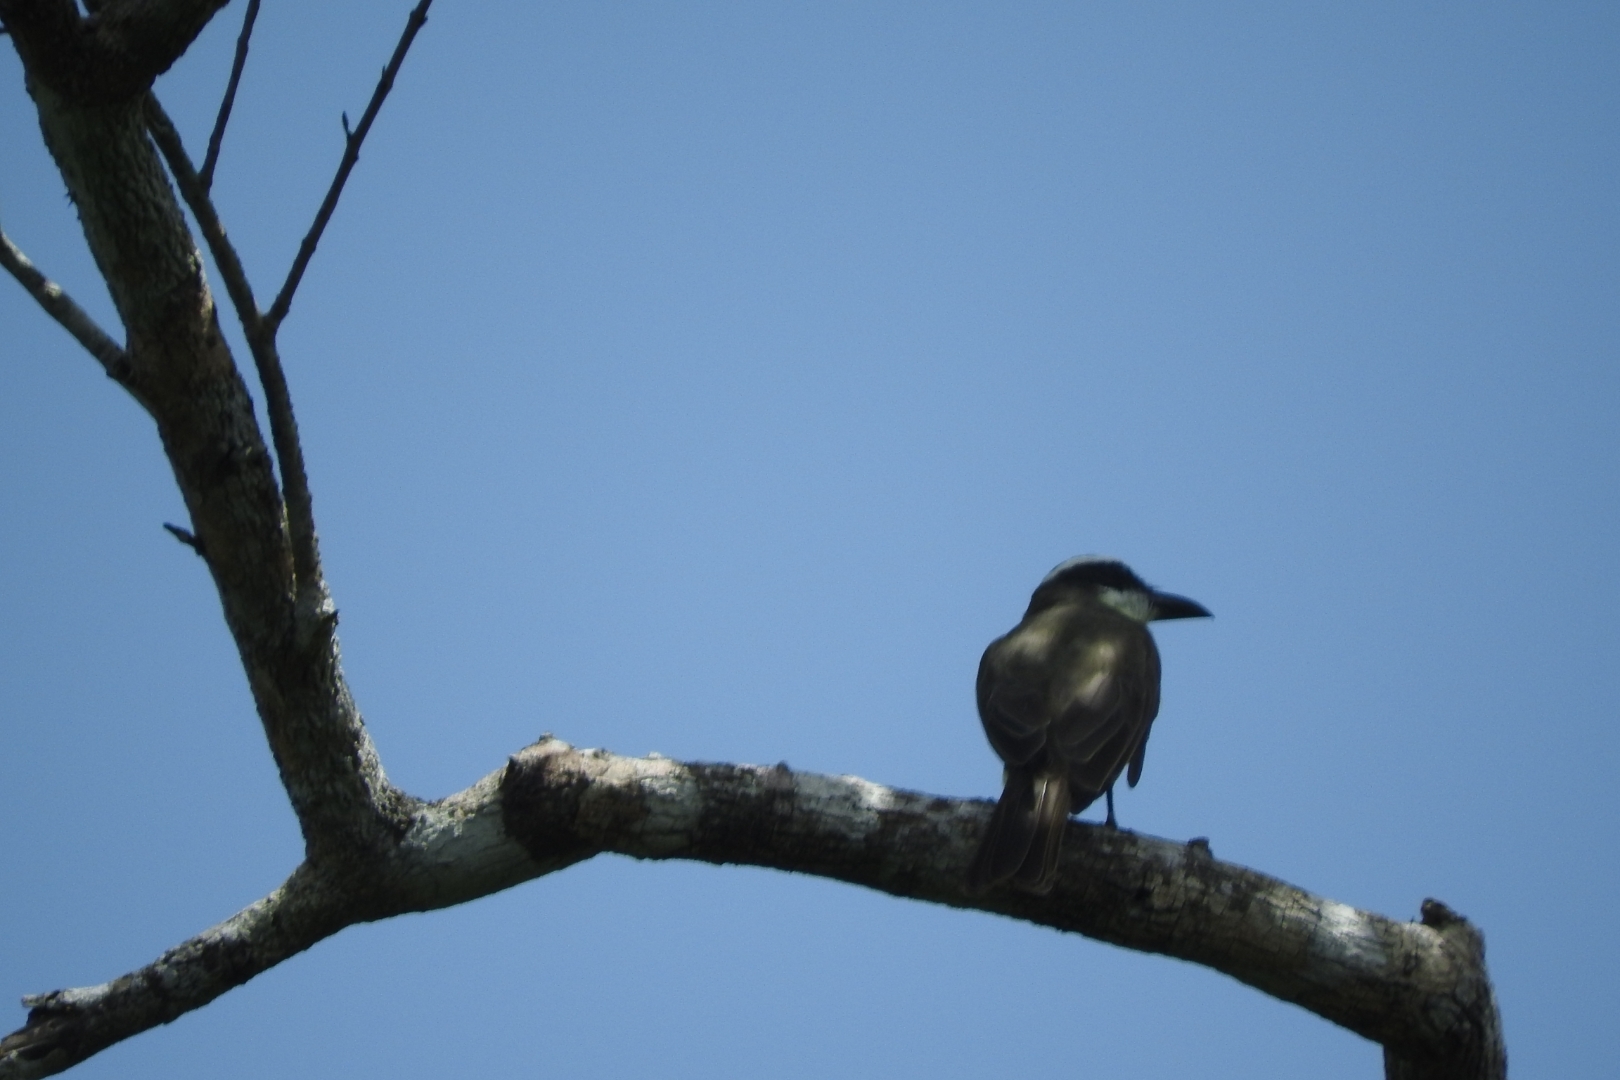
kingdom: Animalia
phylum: Chordata
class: Aves
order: Passeriformes
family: Tyrannidae
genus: Megarynchus
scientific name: Megarynchus pitangua
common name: Boat-billed flycatcher
